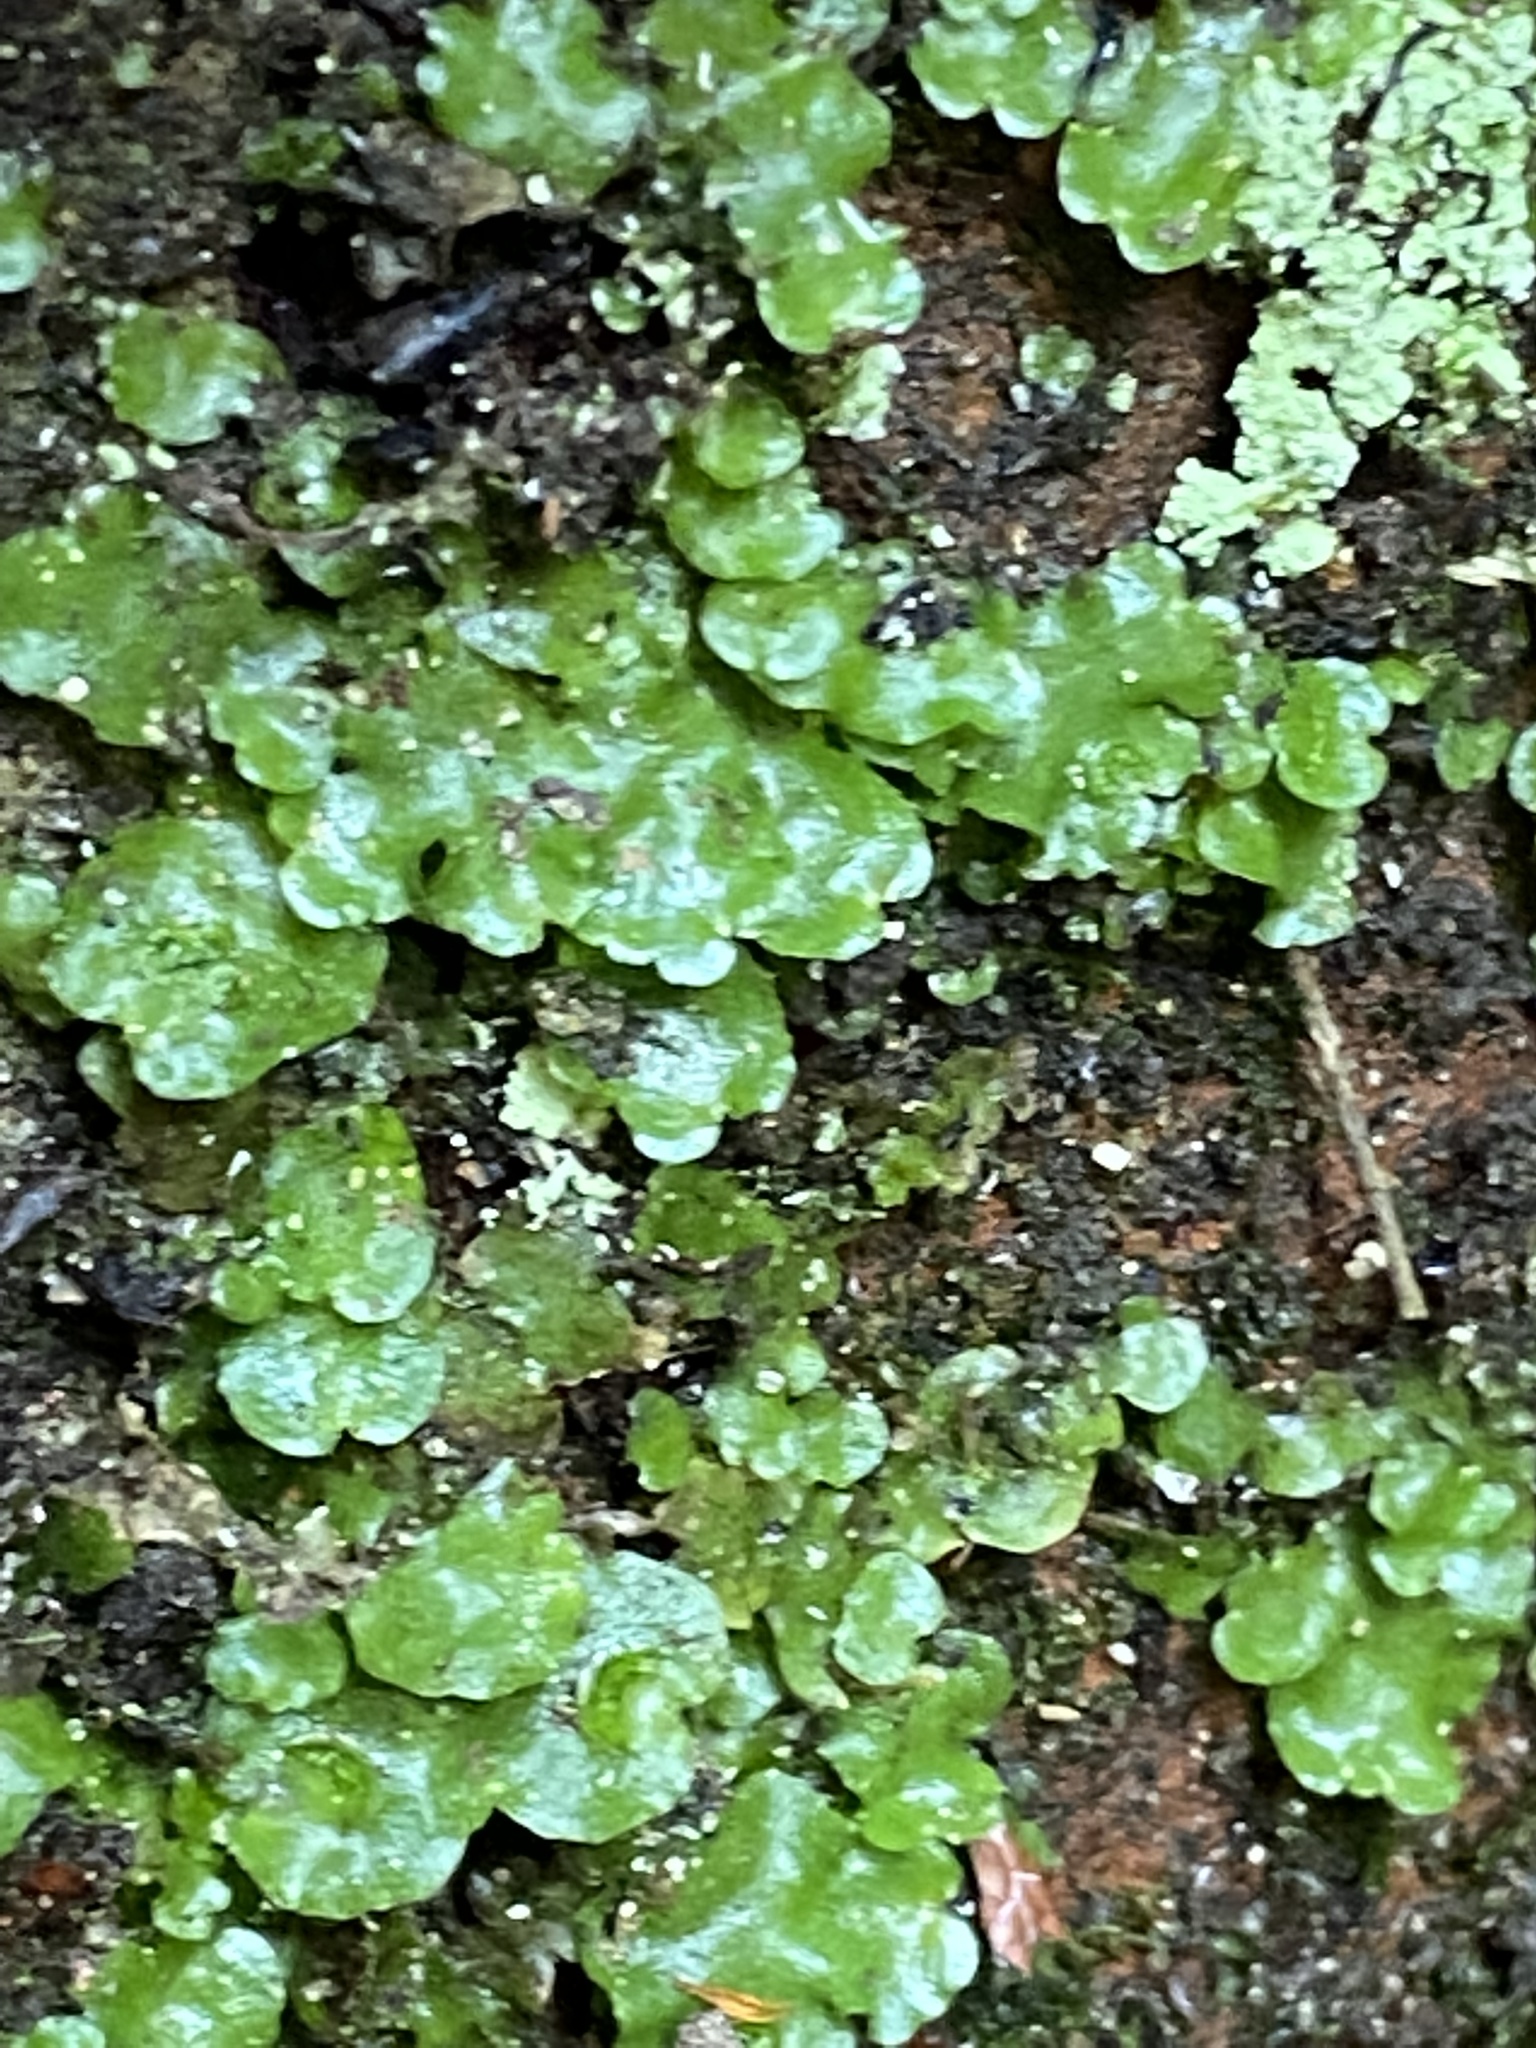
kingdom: Plantae
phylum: Marchantiophyta
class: Marchantiopsida
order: Lunulariales
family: Lunulariaceae
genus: Lunularia
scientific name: Lunularia cruciata
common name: Crescent-cup liverwort
